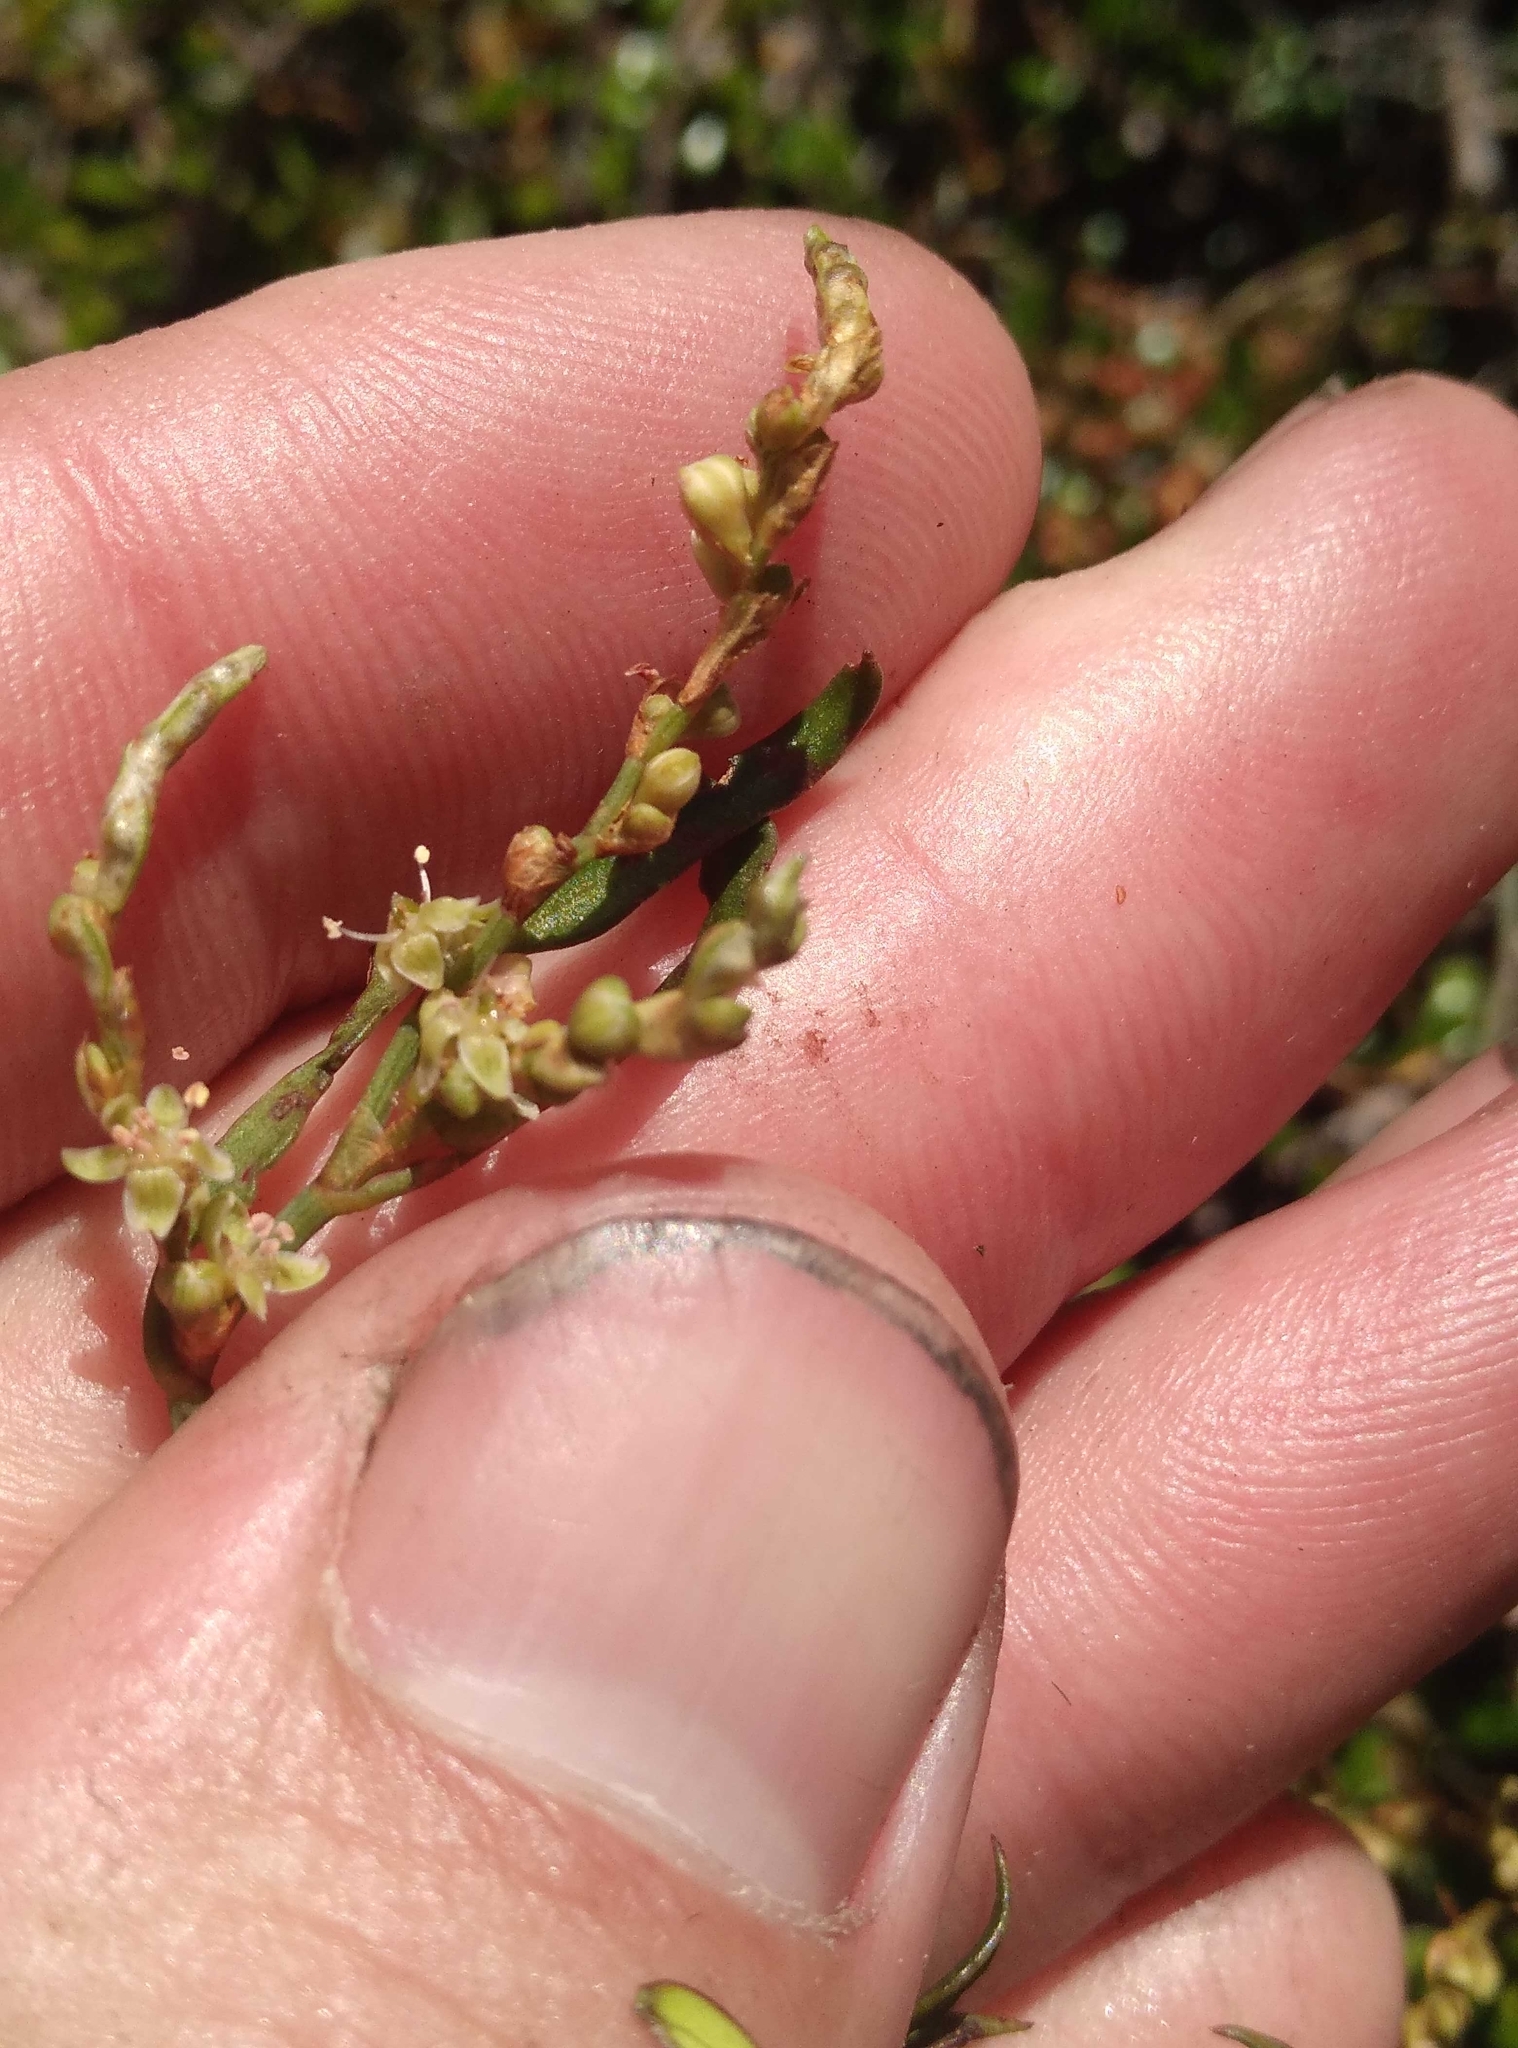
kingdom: Plantae
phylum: Tracheophyta
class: Magnoliopsida
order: Caryophyllales
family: Polygonaceae
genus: Muehlenbeckia
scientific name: Muehlenbeckia
